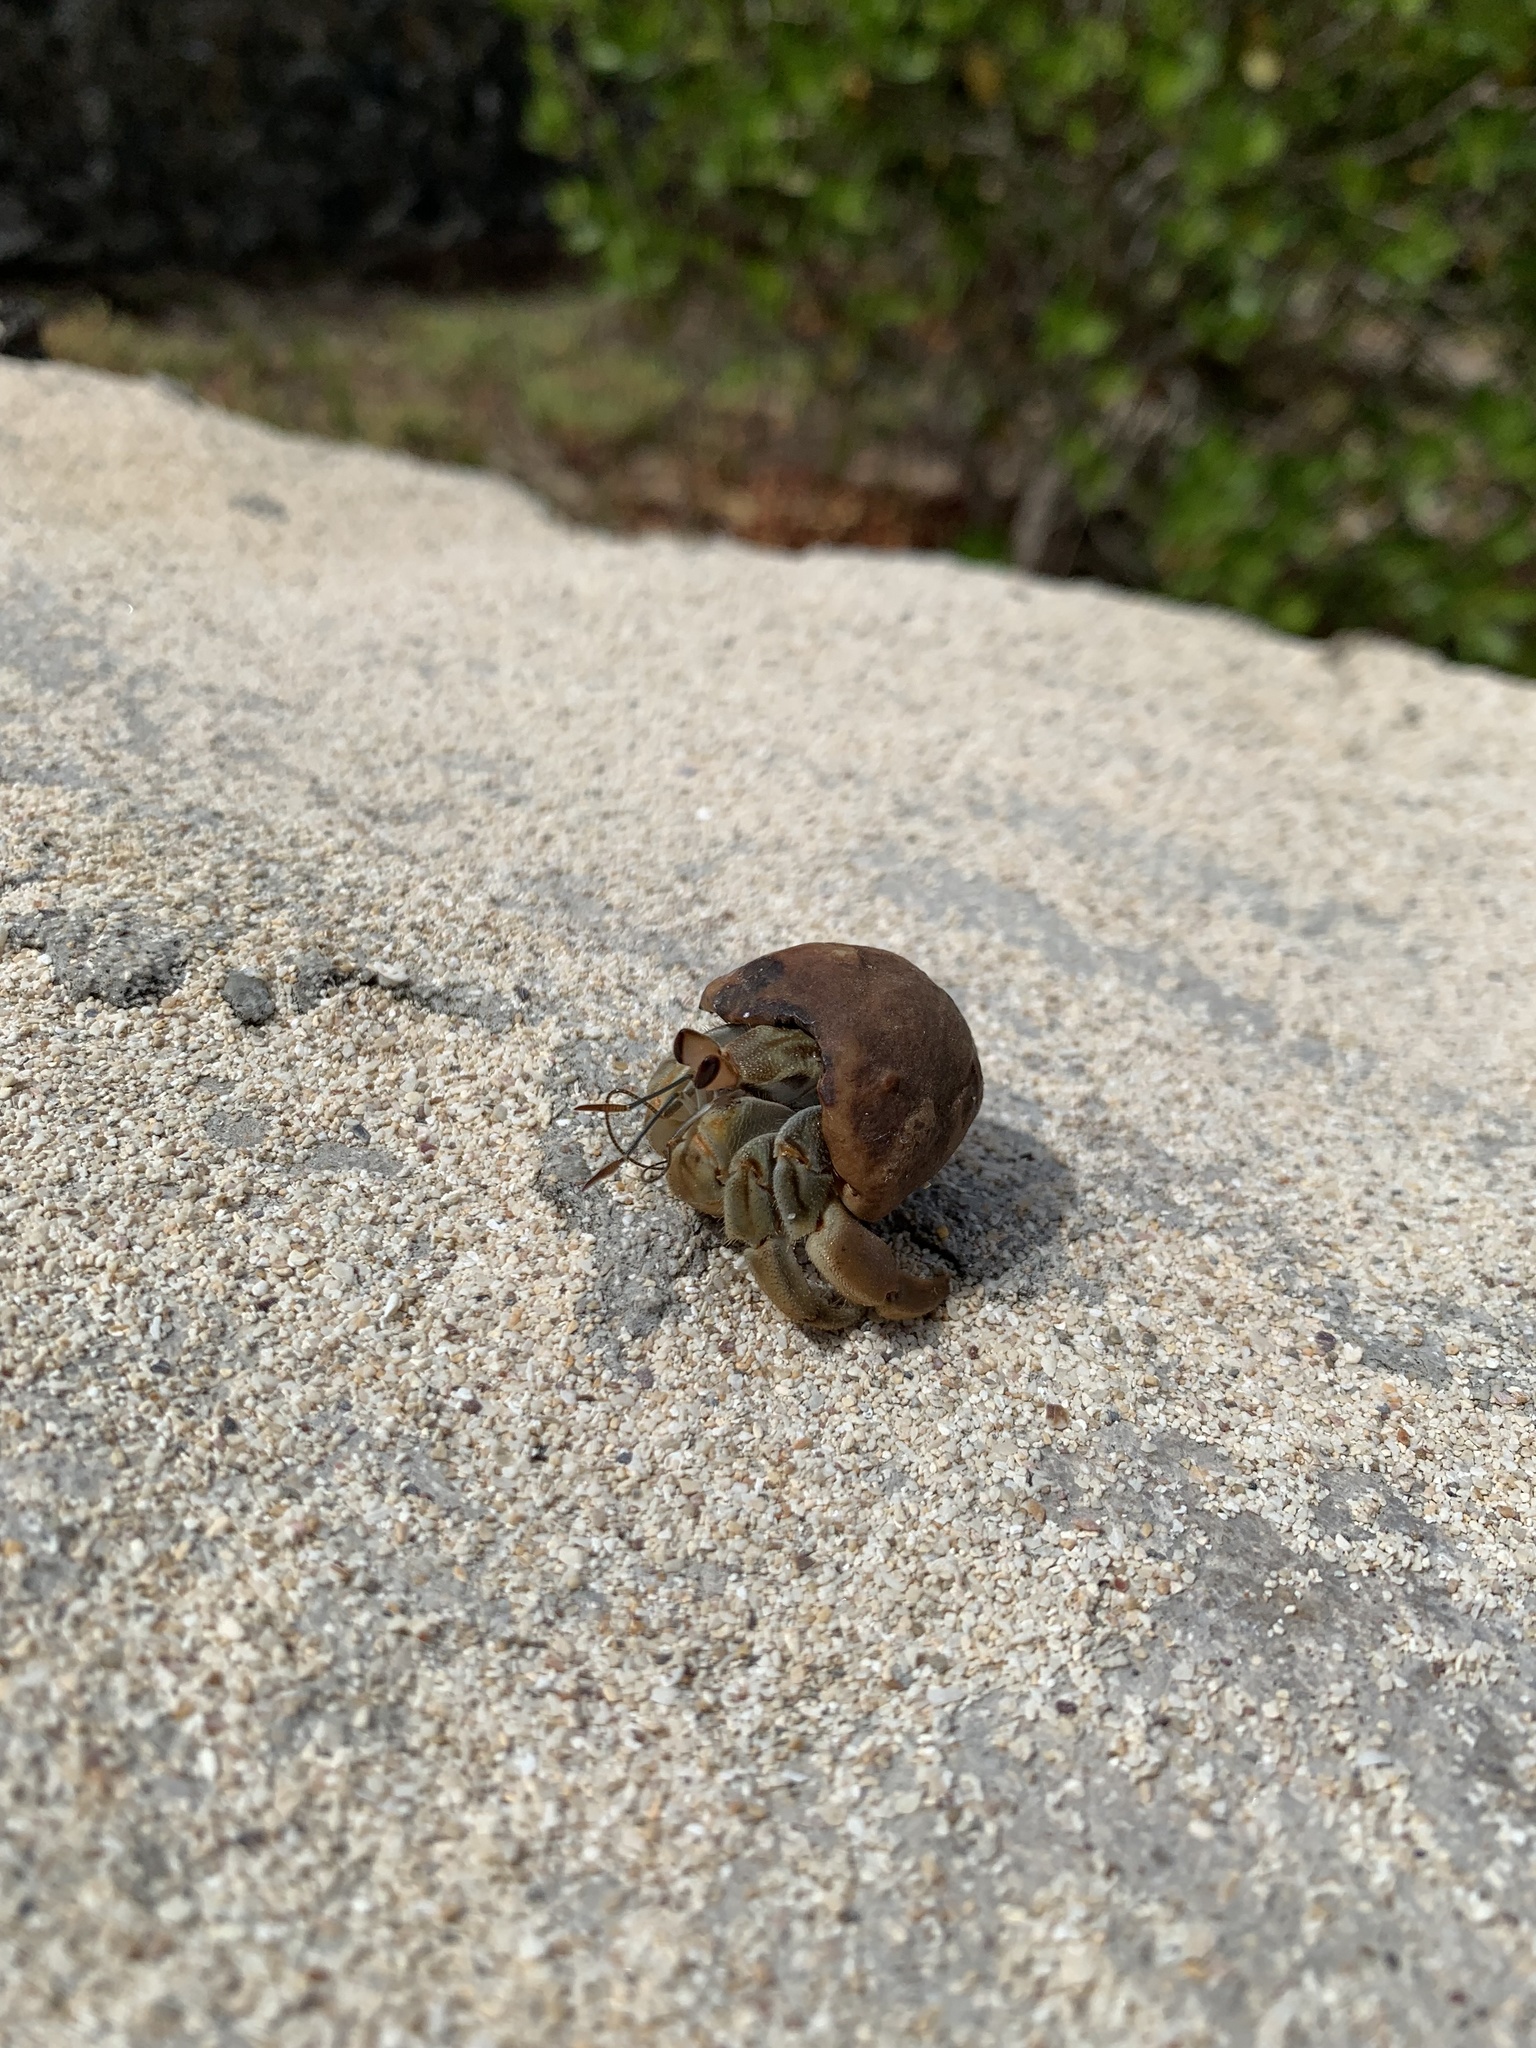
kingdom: Animalia
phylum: Arthropoda
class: Malacostraca
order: Decapoda
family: Coenobitidae
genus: Coenobita
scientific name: Coenobita compressus
